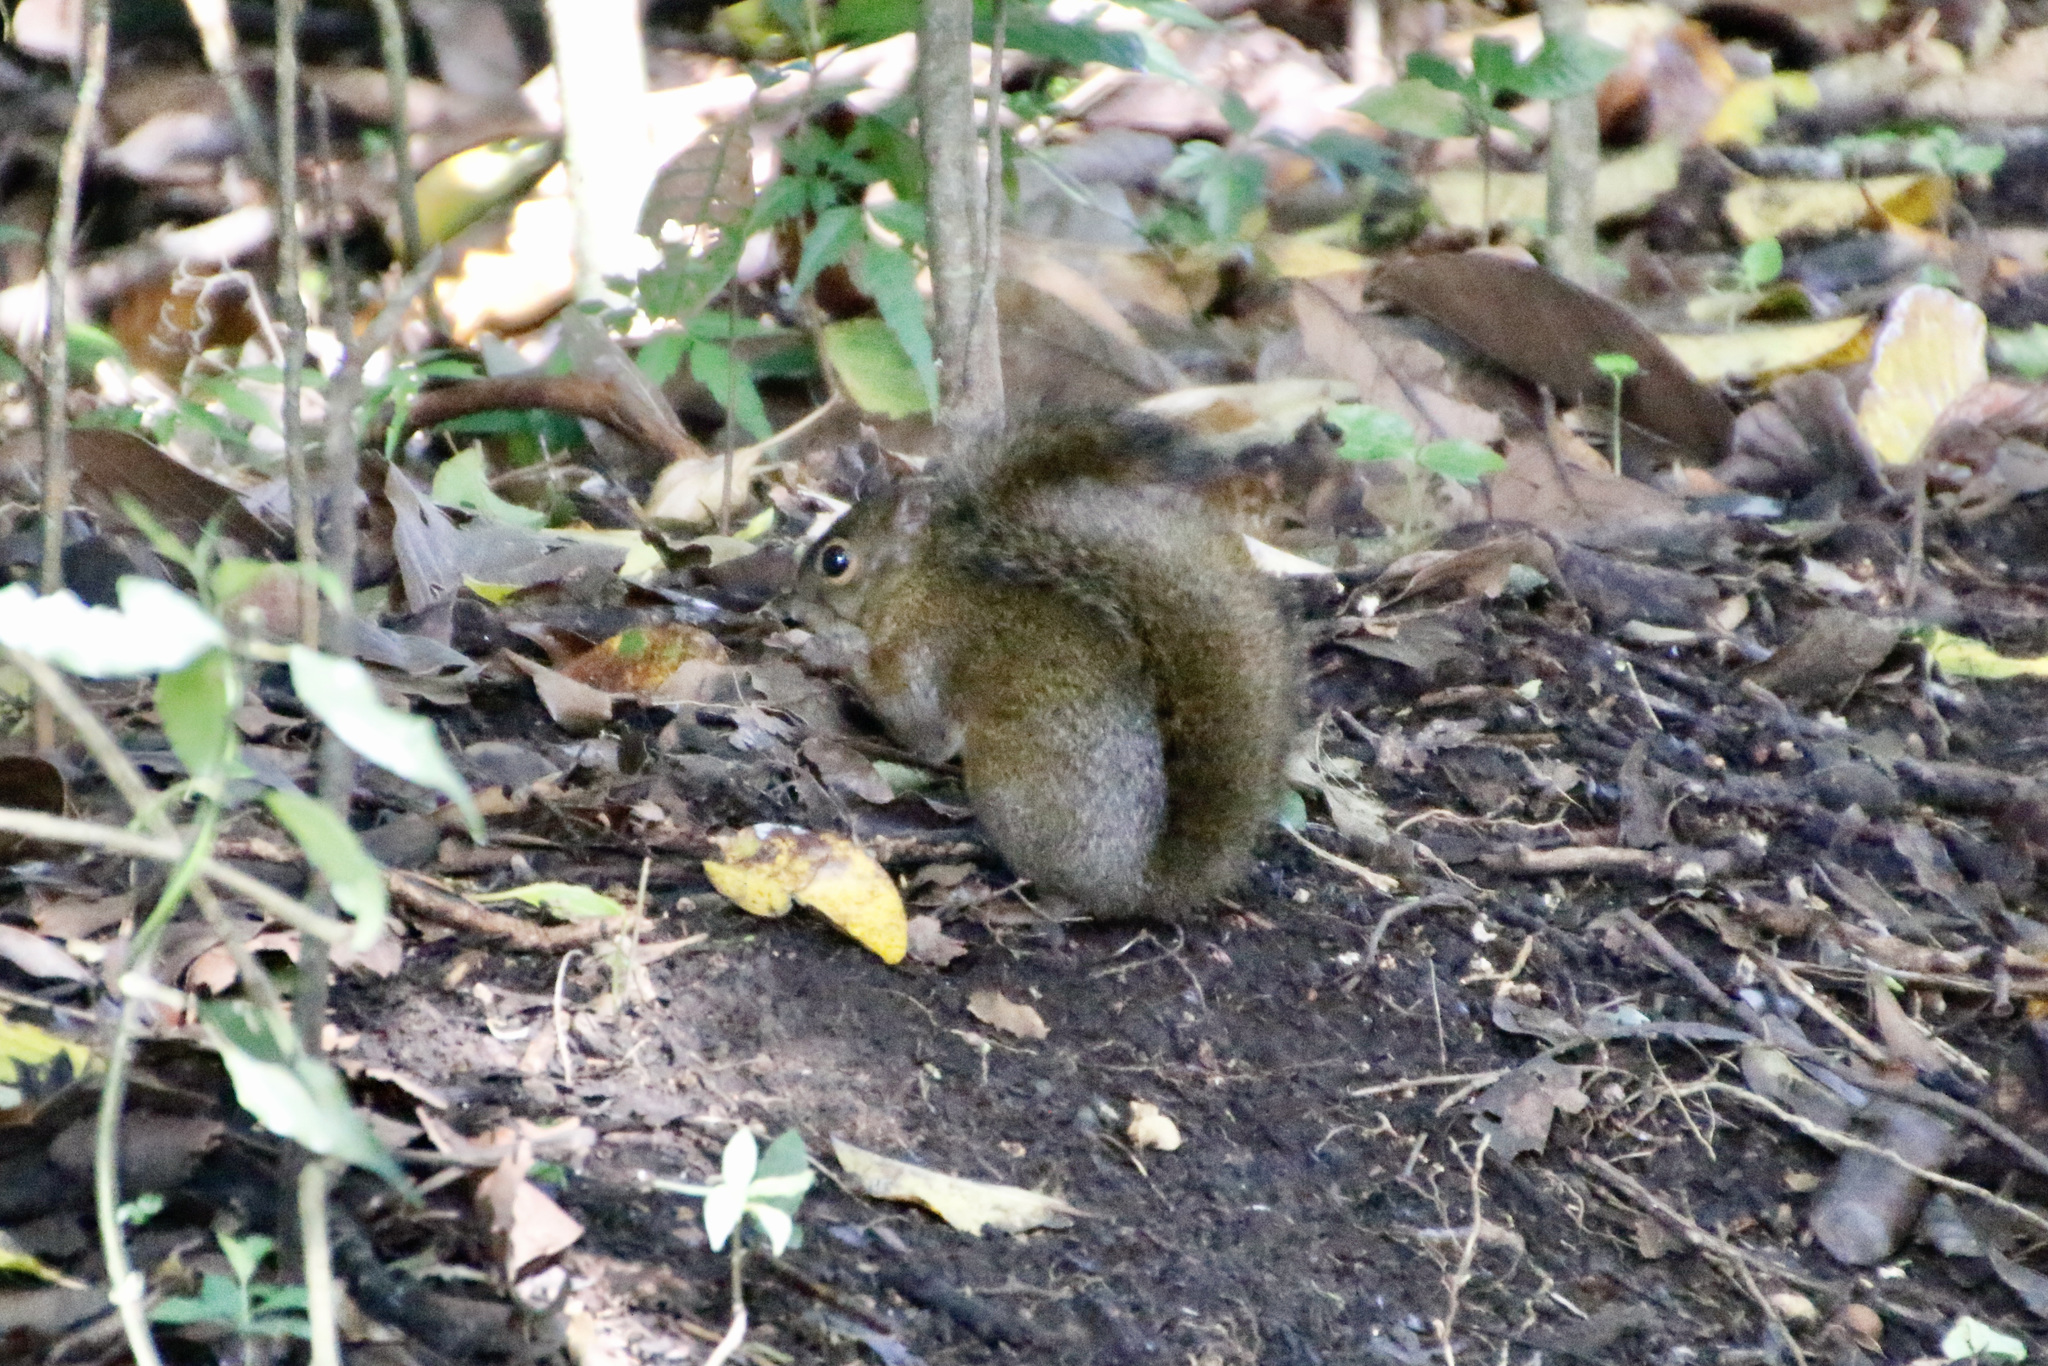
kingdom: Animalia
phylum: Chordata
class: Mammalia
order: Rodentia
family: Sciuridae
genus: Sciurus
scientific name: Sciurus deppei
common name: Deppe's squirrel
